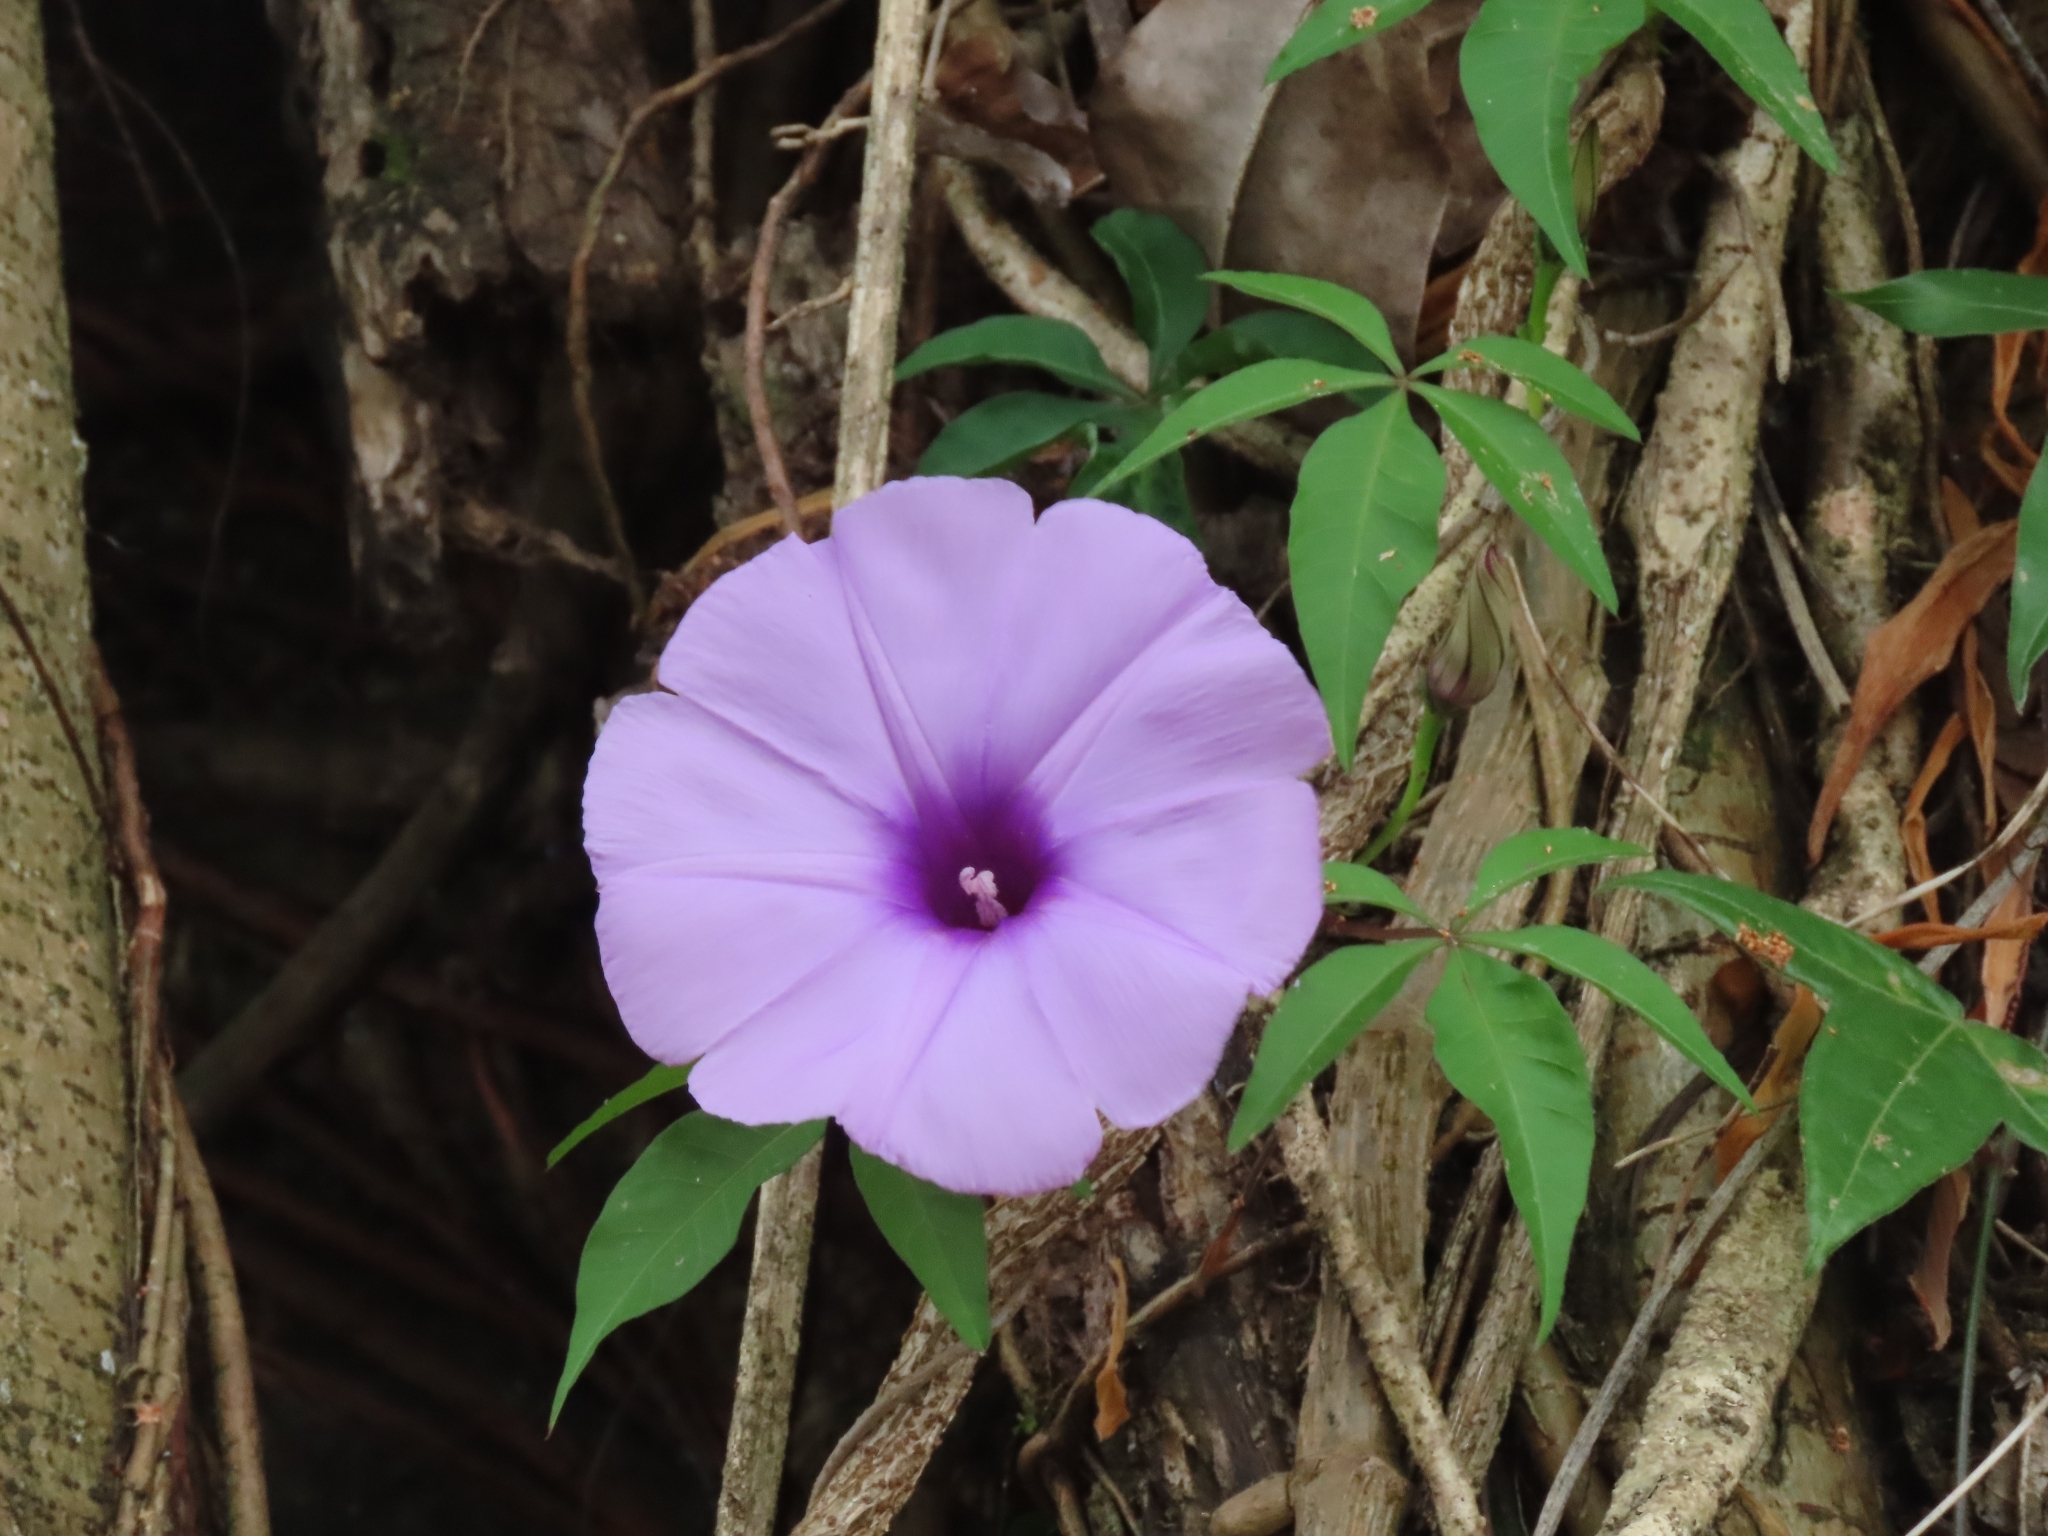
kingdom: Plantae
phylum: Tracheophyta
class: Magnoliopsida
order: Solanales
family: Convolvulaceae
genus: Ipomoea
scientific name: Ipomoea cairica
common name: Mile a minute vine
